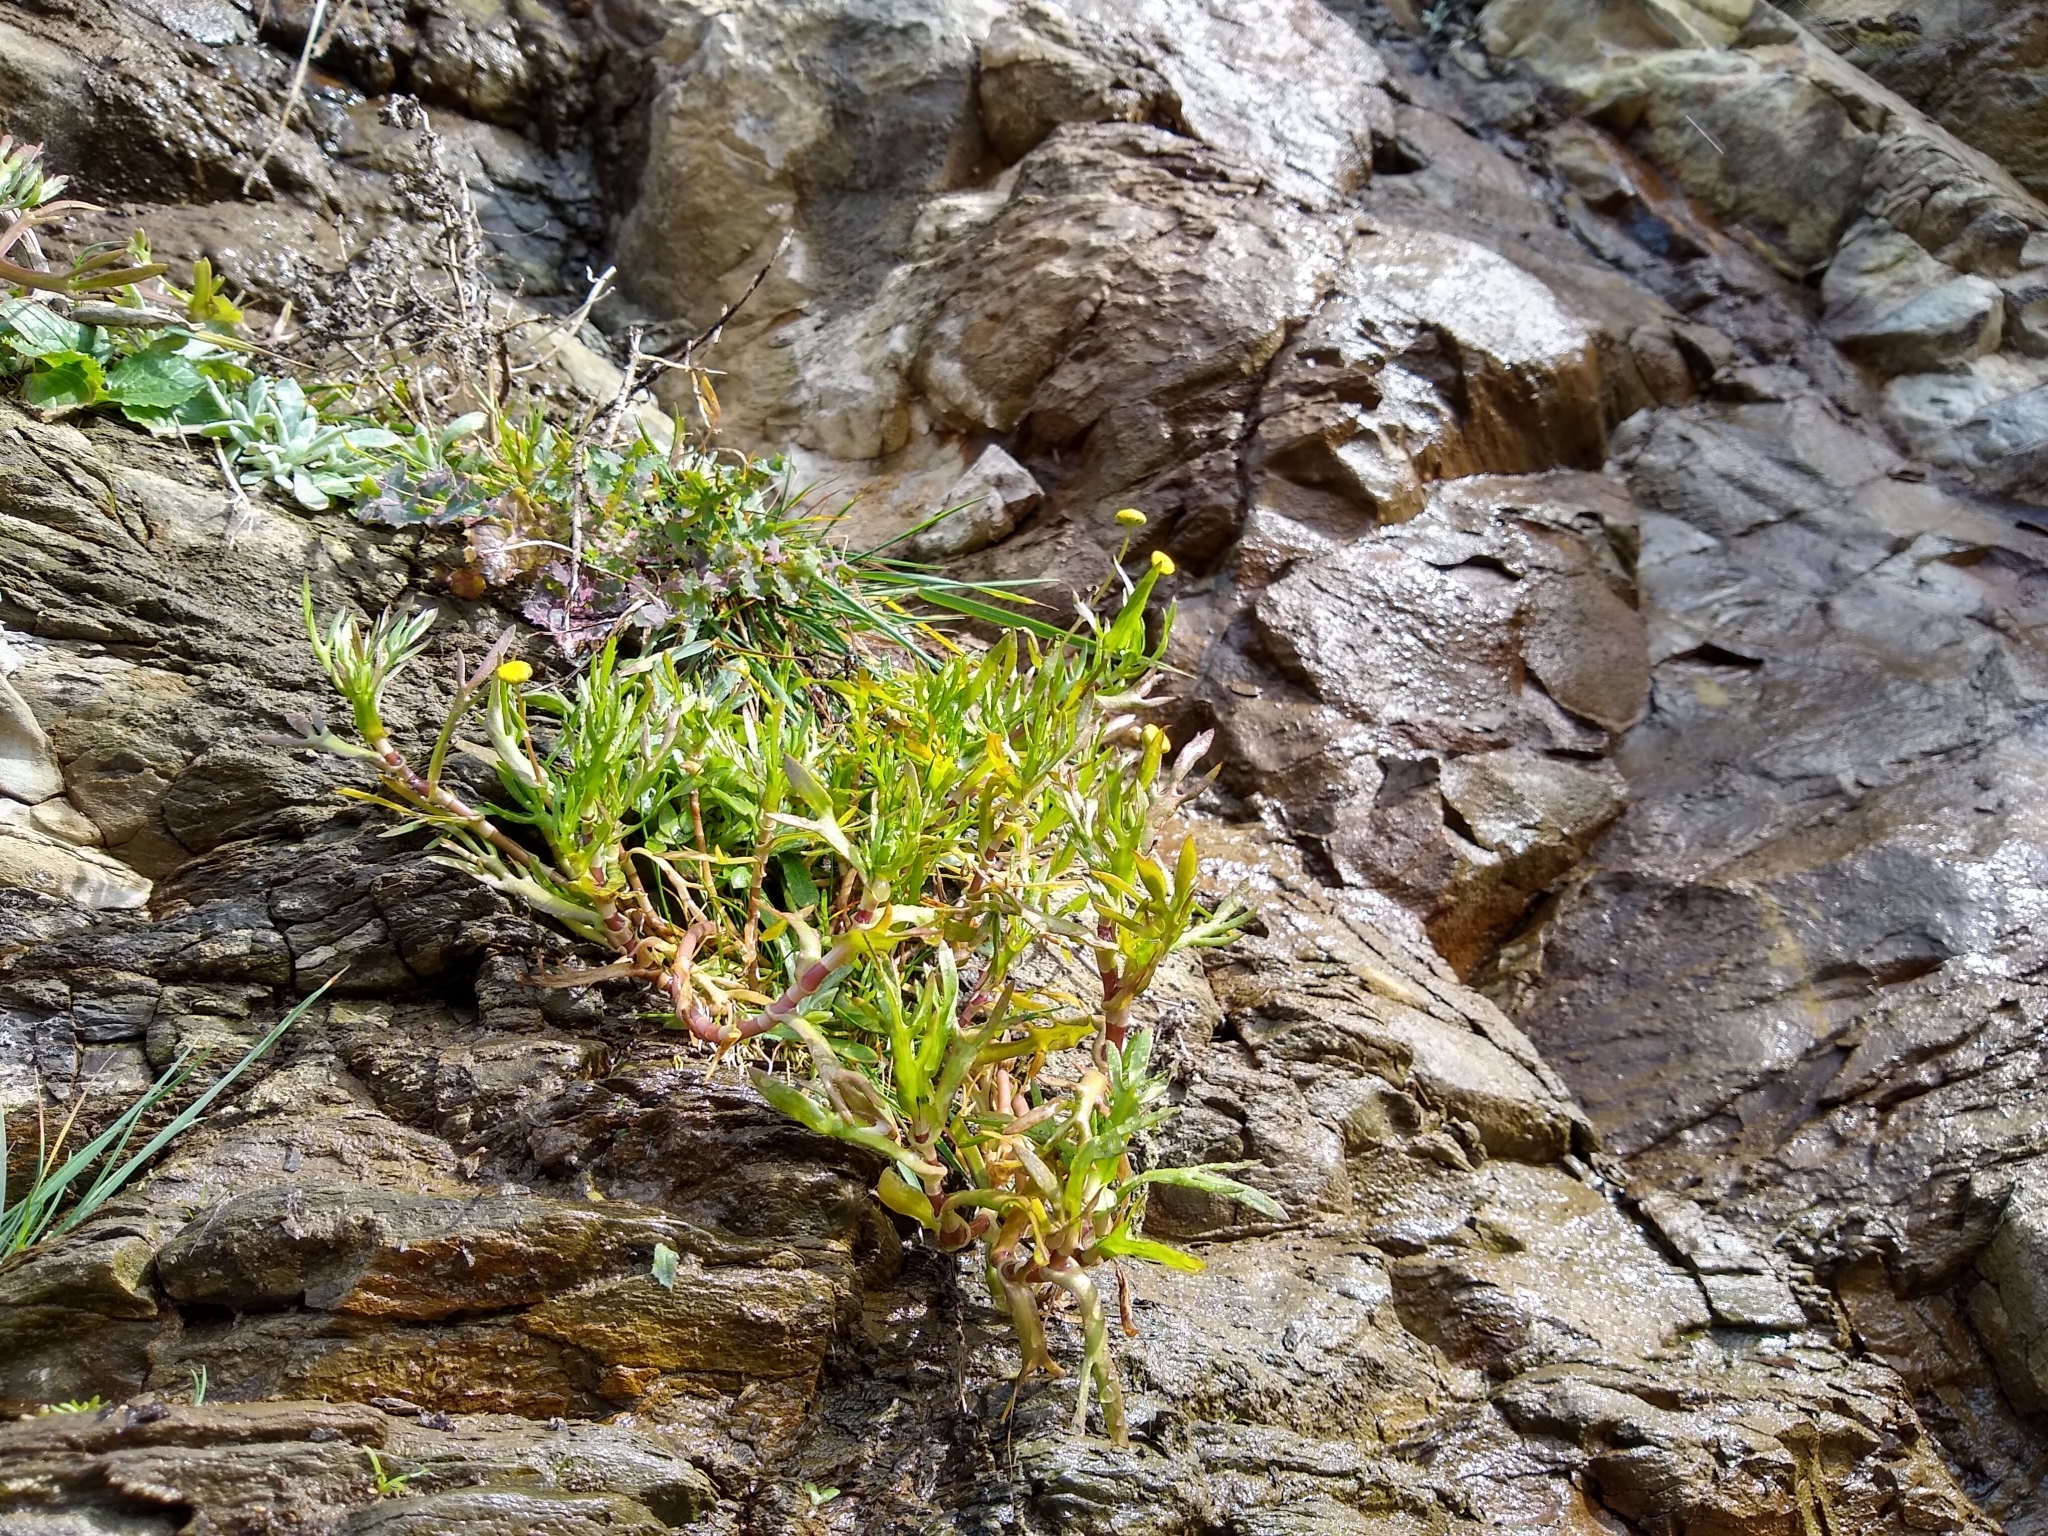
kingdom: Plantae
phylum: Tracheophyta
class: Magnoliopsida
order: Asterales
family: Asteraceae
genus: Cotula
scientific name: Cotula coronopifolia
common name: Buttonweed
